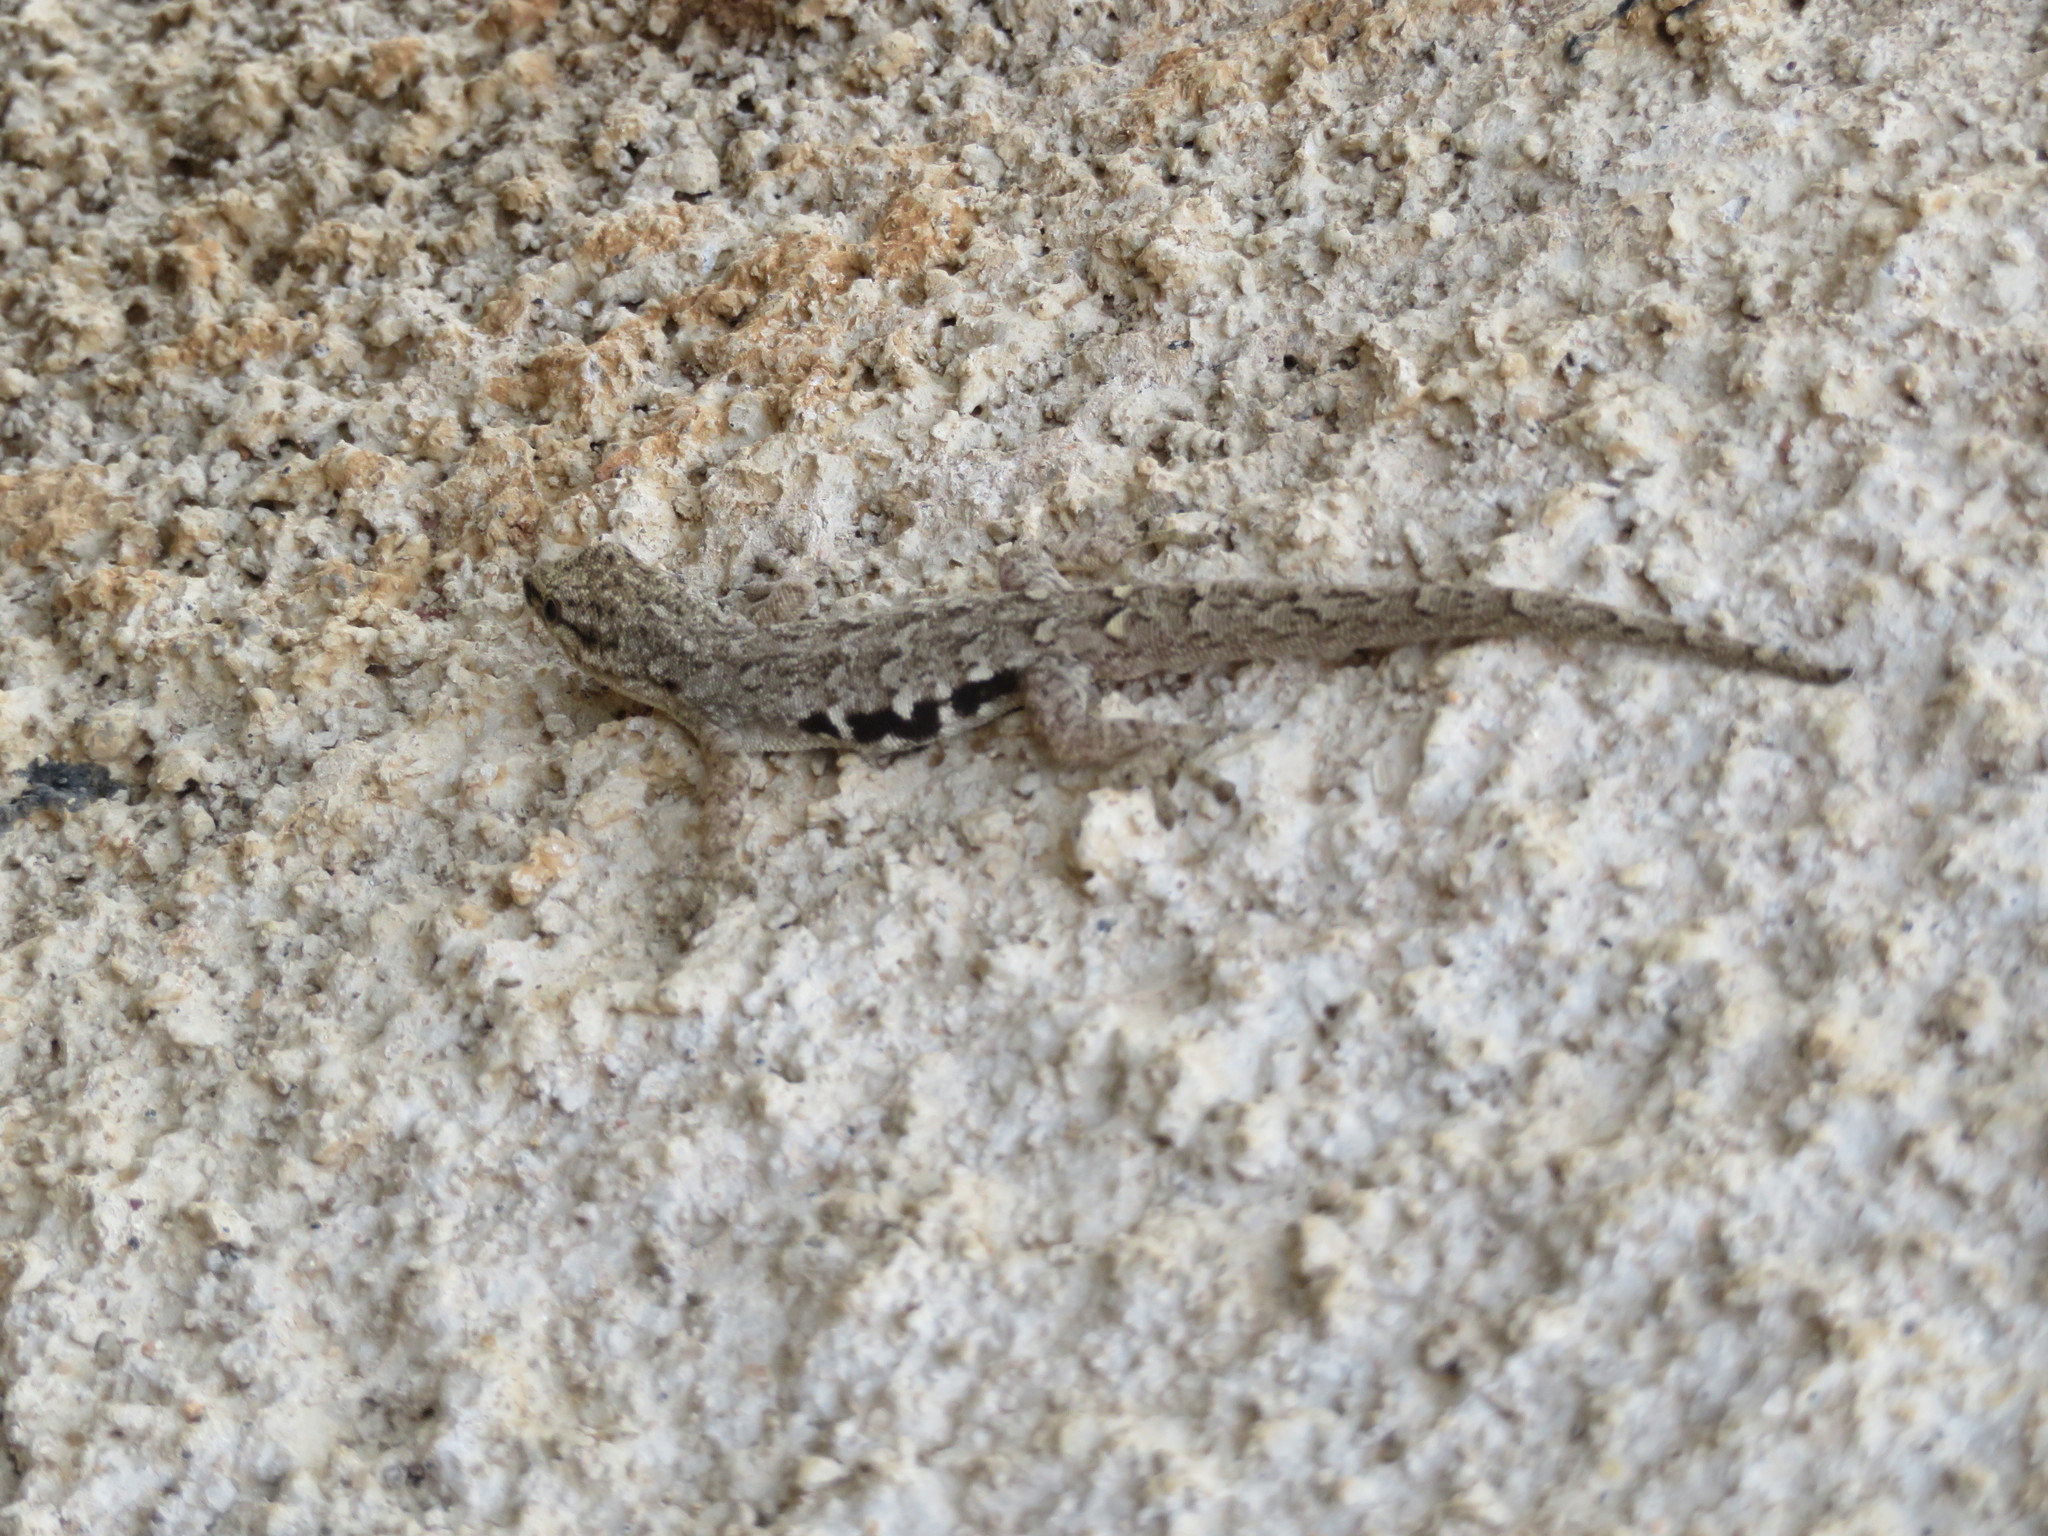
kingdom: Animalia
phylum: Chordata
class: Squamata
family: Gekkonidae
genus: Lygodactylus
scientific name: Lygodactylus laterimaculatus
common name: Side-spotted dwarf gecko
